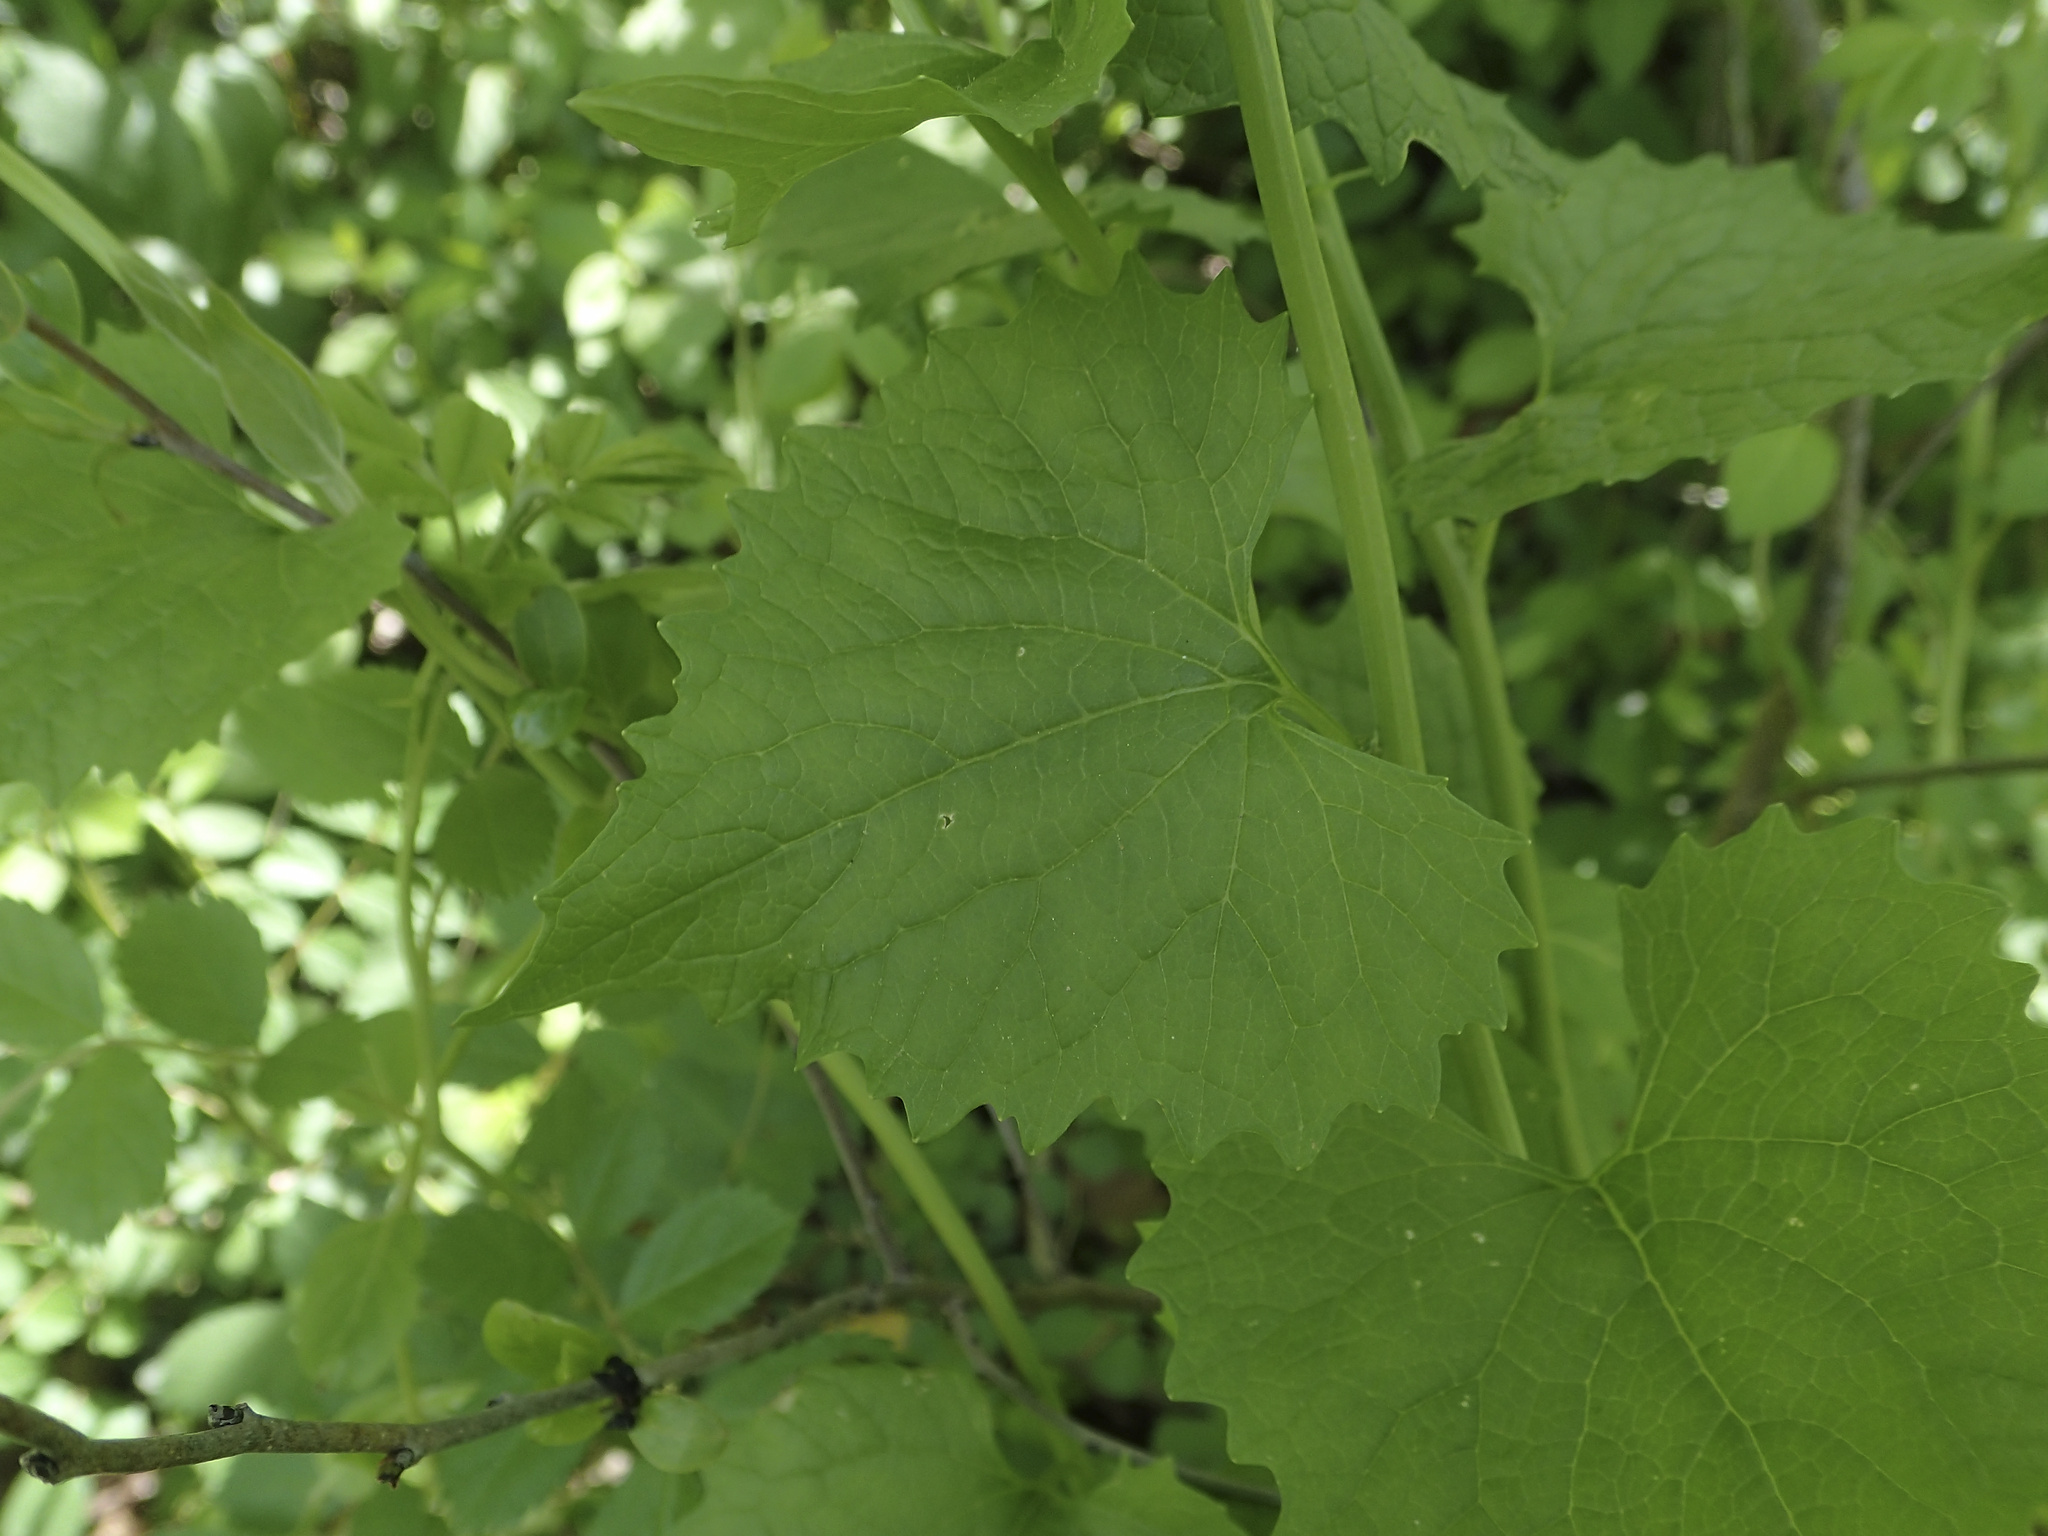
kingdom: Plantae
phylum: Tracheophyta
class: Magnoliopsida
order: Brassicales
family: Brassicaceae
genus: Alliaria
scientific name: Alliaria petiolata
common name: Garlic mustard
